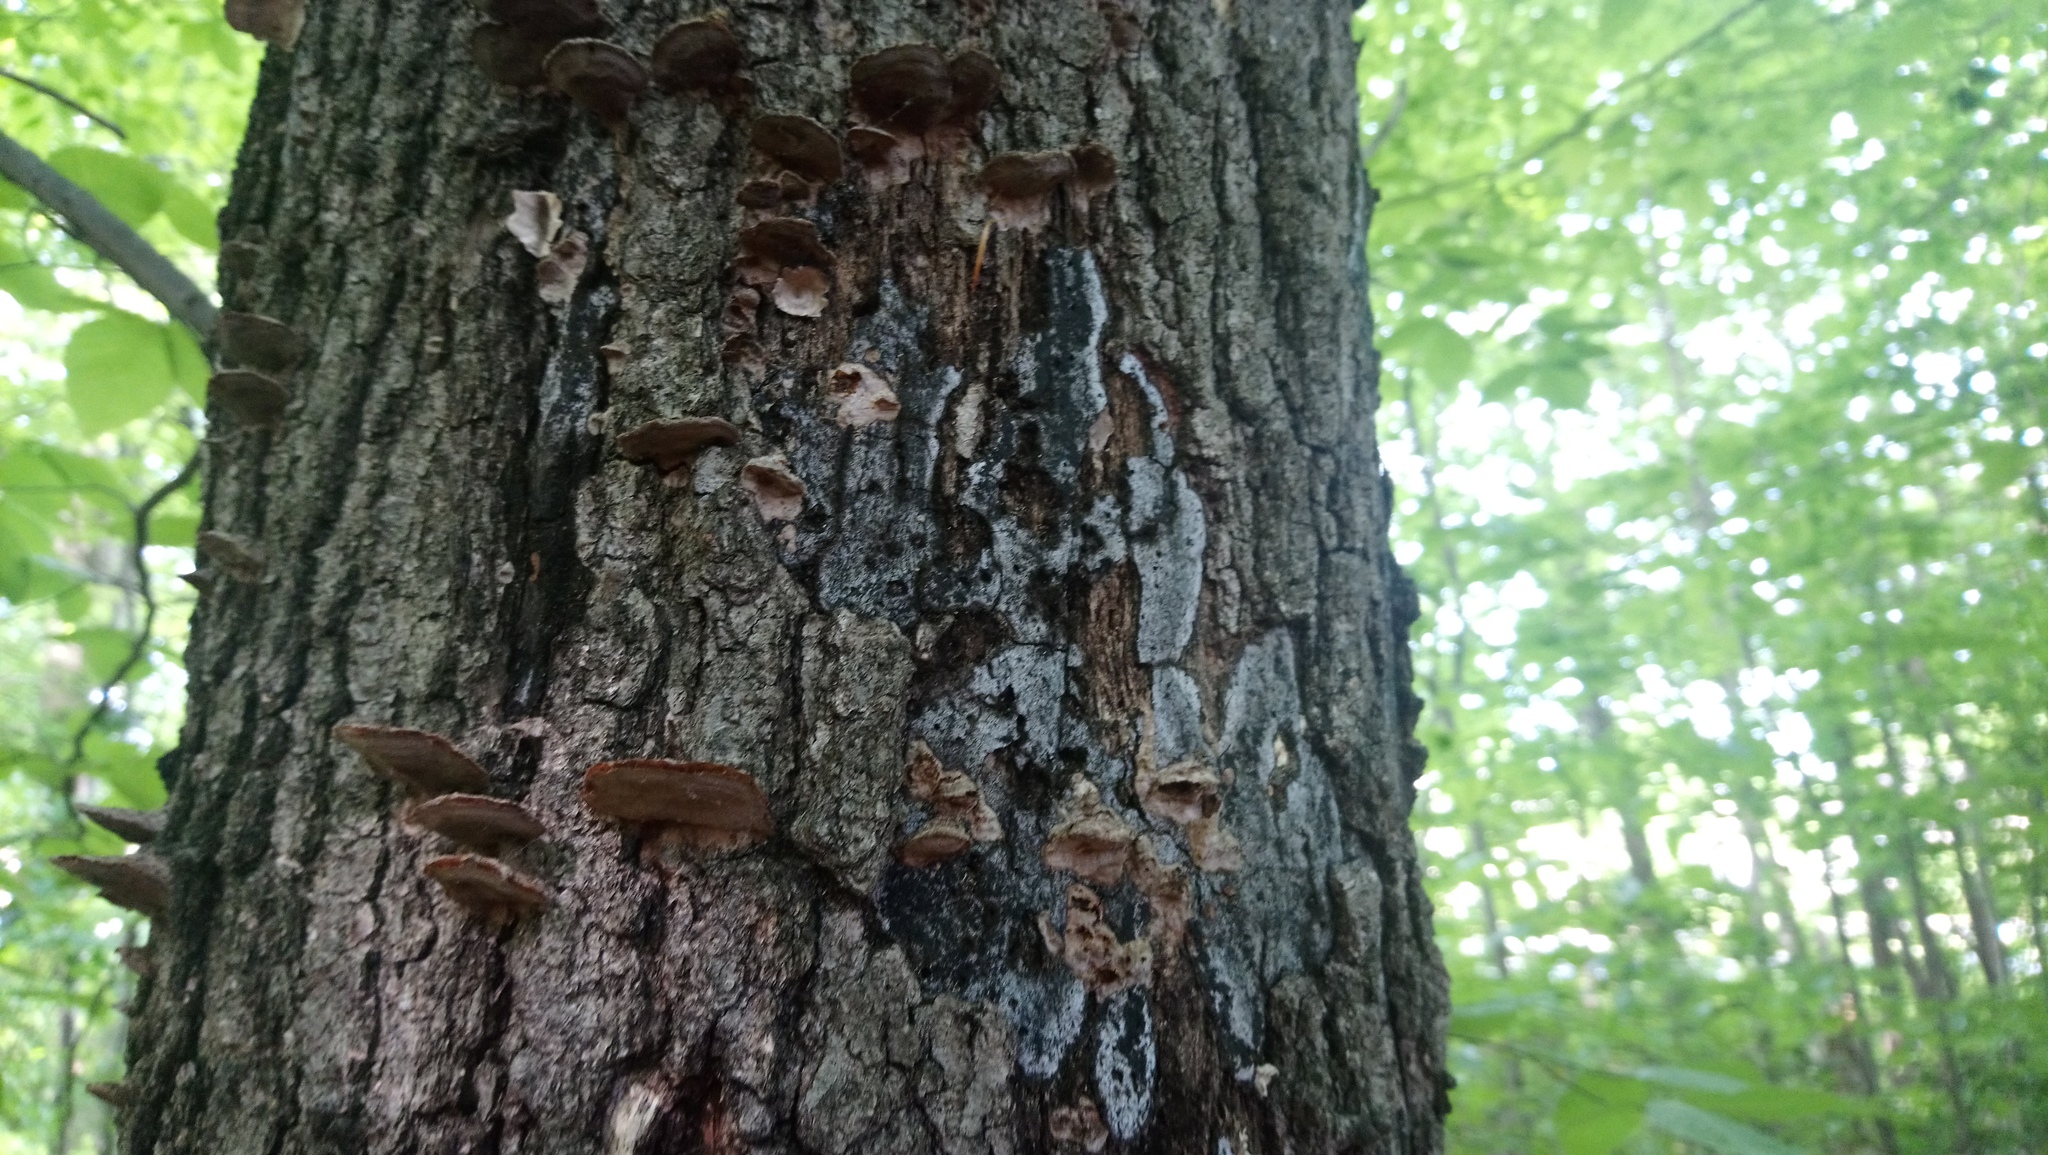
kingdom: Fungi
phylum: Ascomycota
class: Sordariomycetes
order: Xylariales
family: Graphostromataceae
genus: Biscogniauxia
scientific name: Biscogniauxia atropunctata
